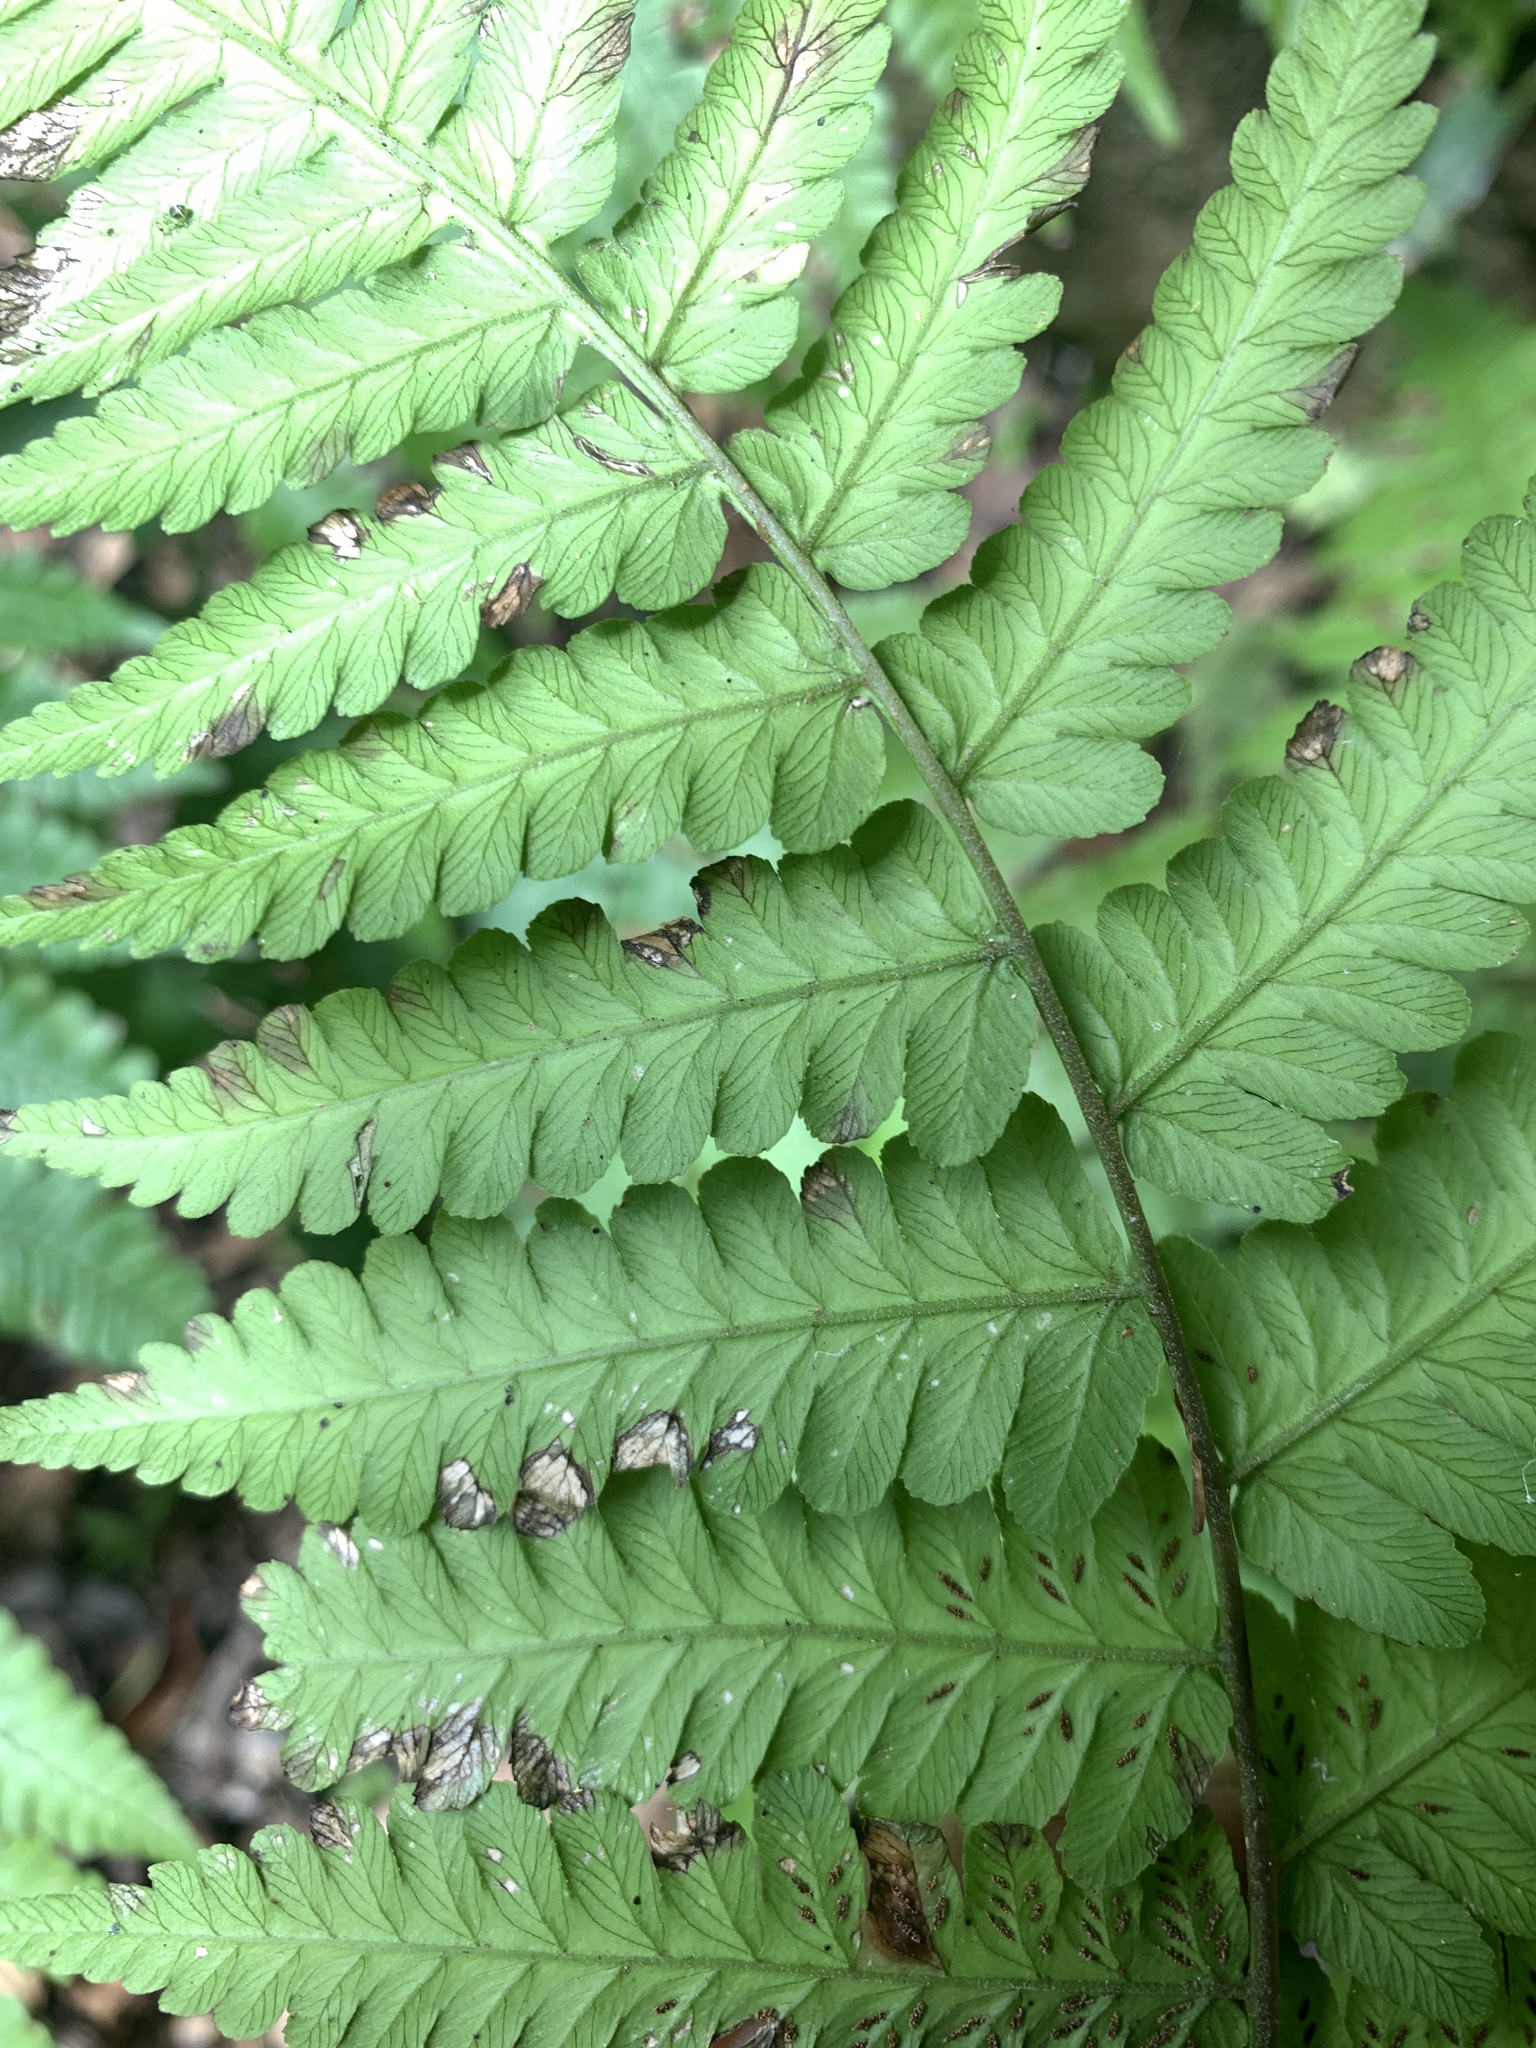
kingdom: Plantae
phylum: Tracheophyta
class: Polypodiopsida
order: Polypodiales
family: Athyriaceae
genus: Diplazium
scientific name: Diplazium maximum
